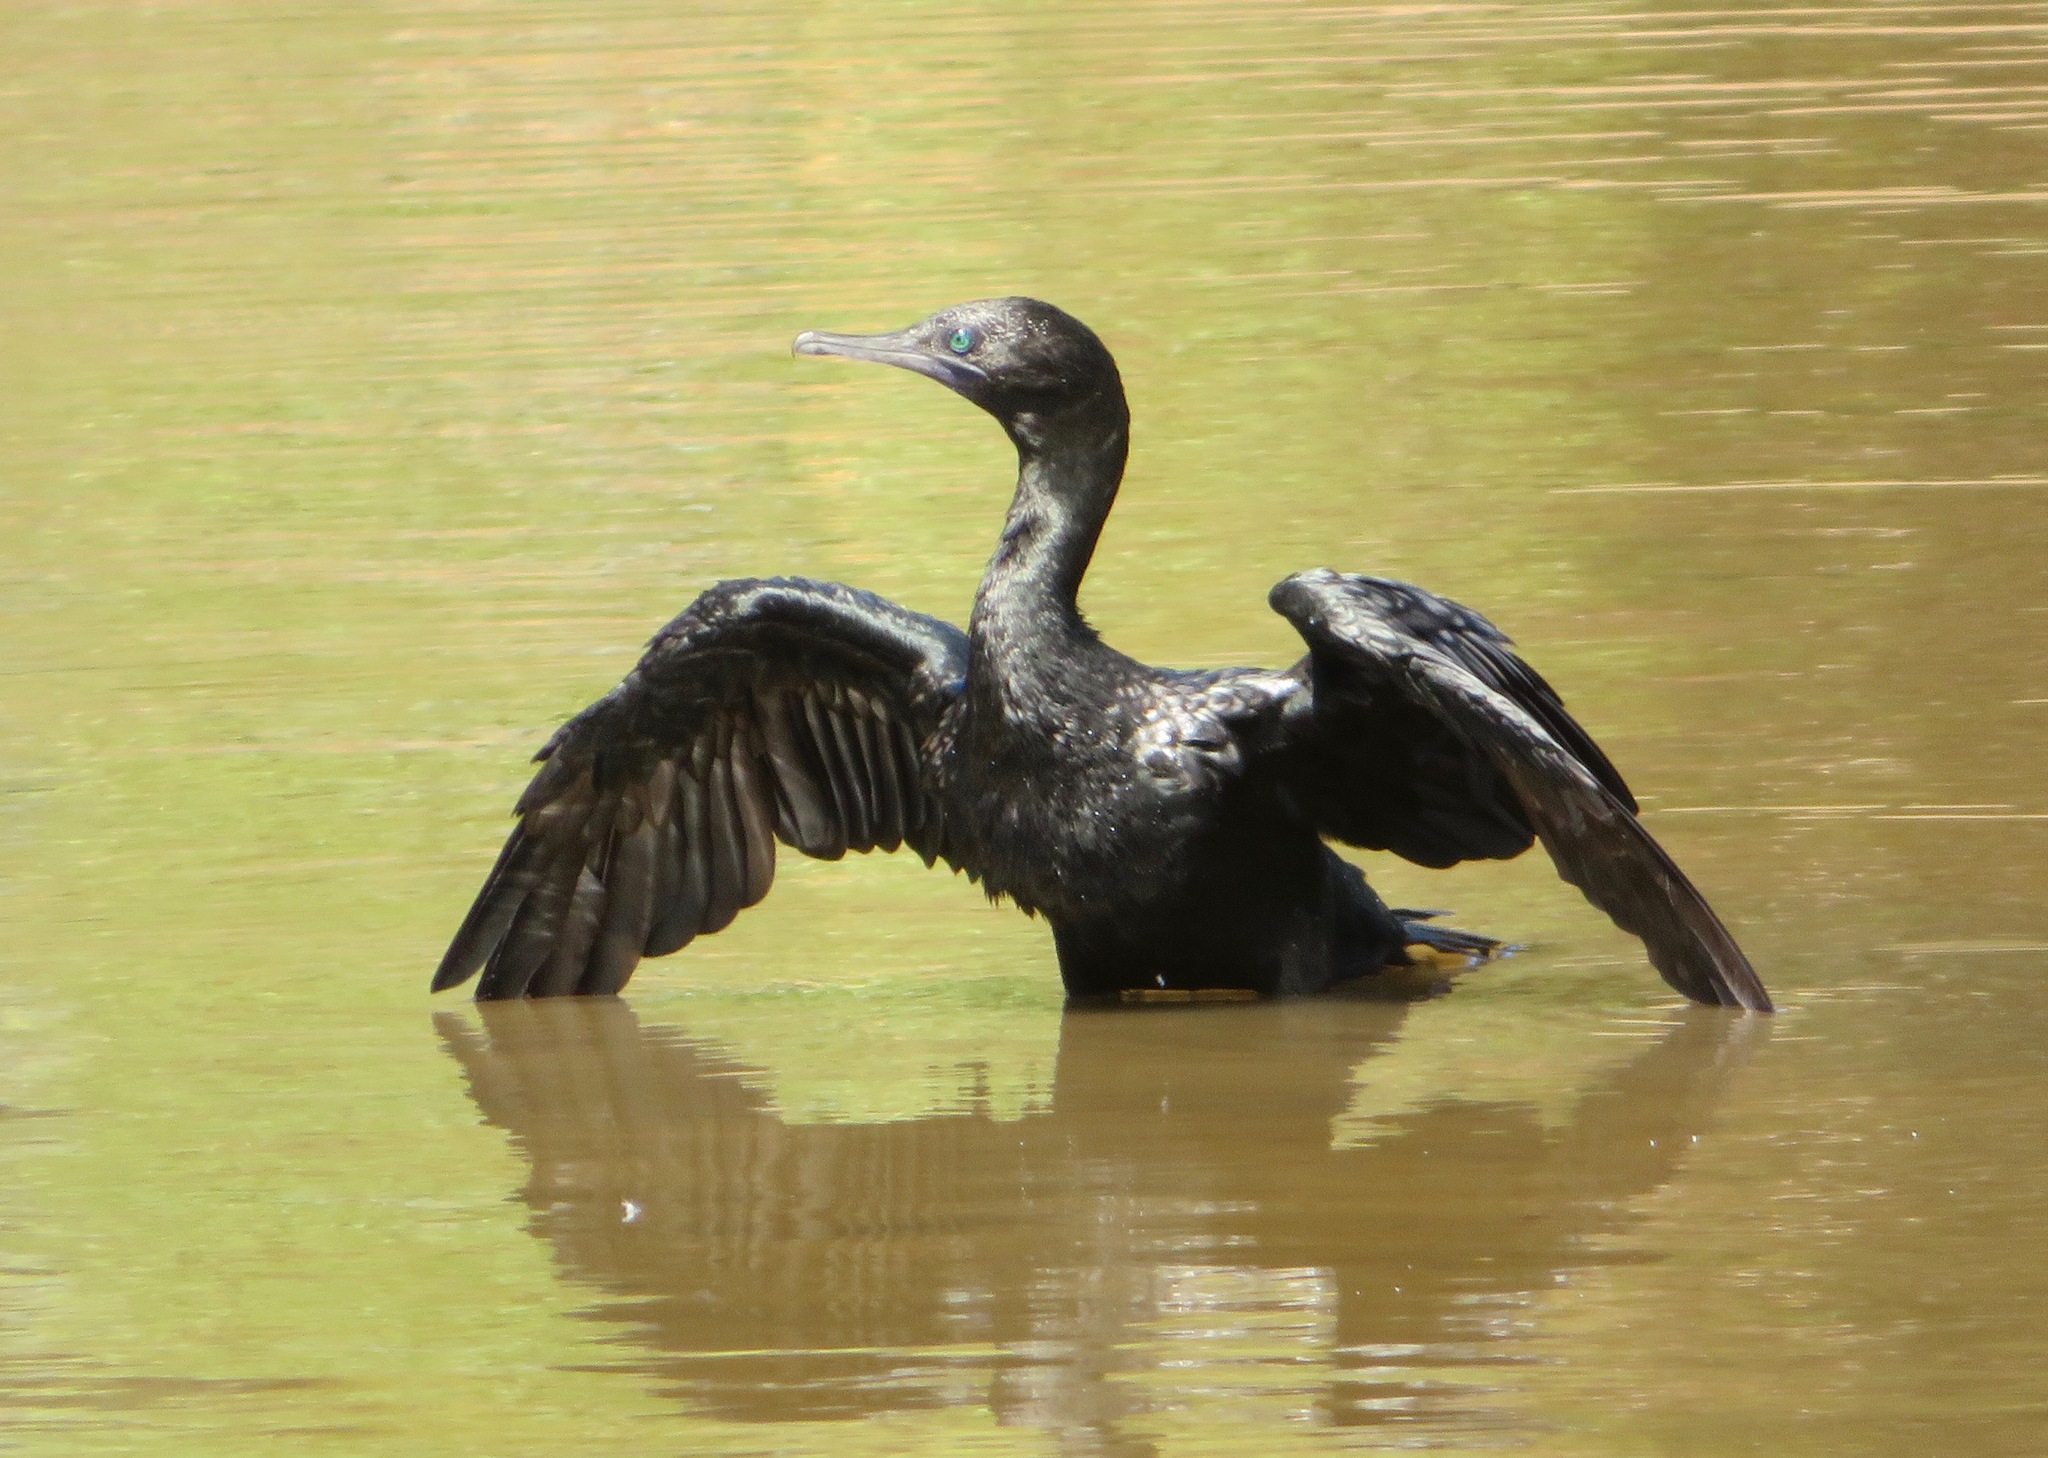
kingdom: Animalia
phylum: Chordata
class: Aves
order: Suliformes
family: Phalacrocoracidae
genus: Phalacrocorax
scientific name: Phalacrocorax sulcirostris
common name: Little black cormorant
